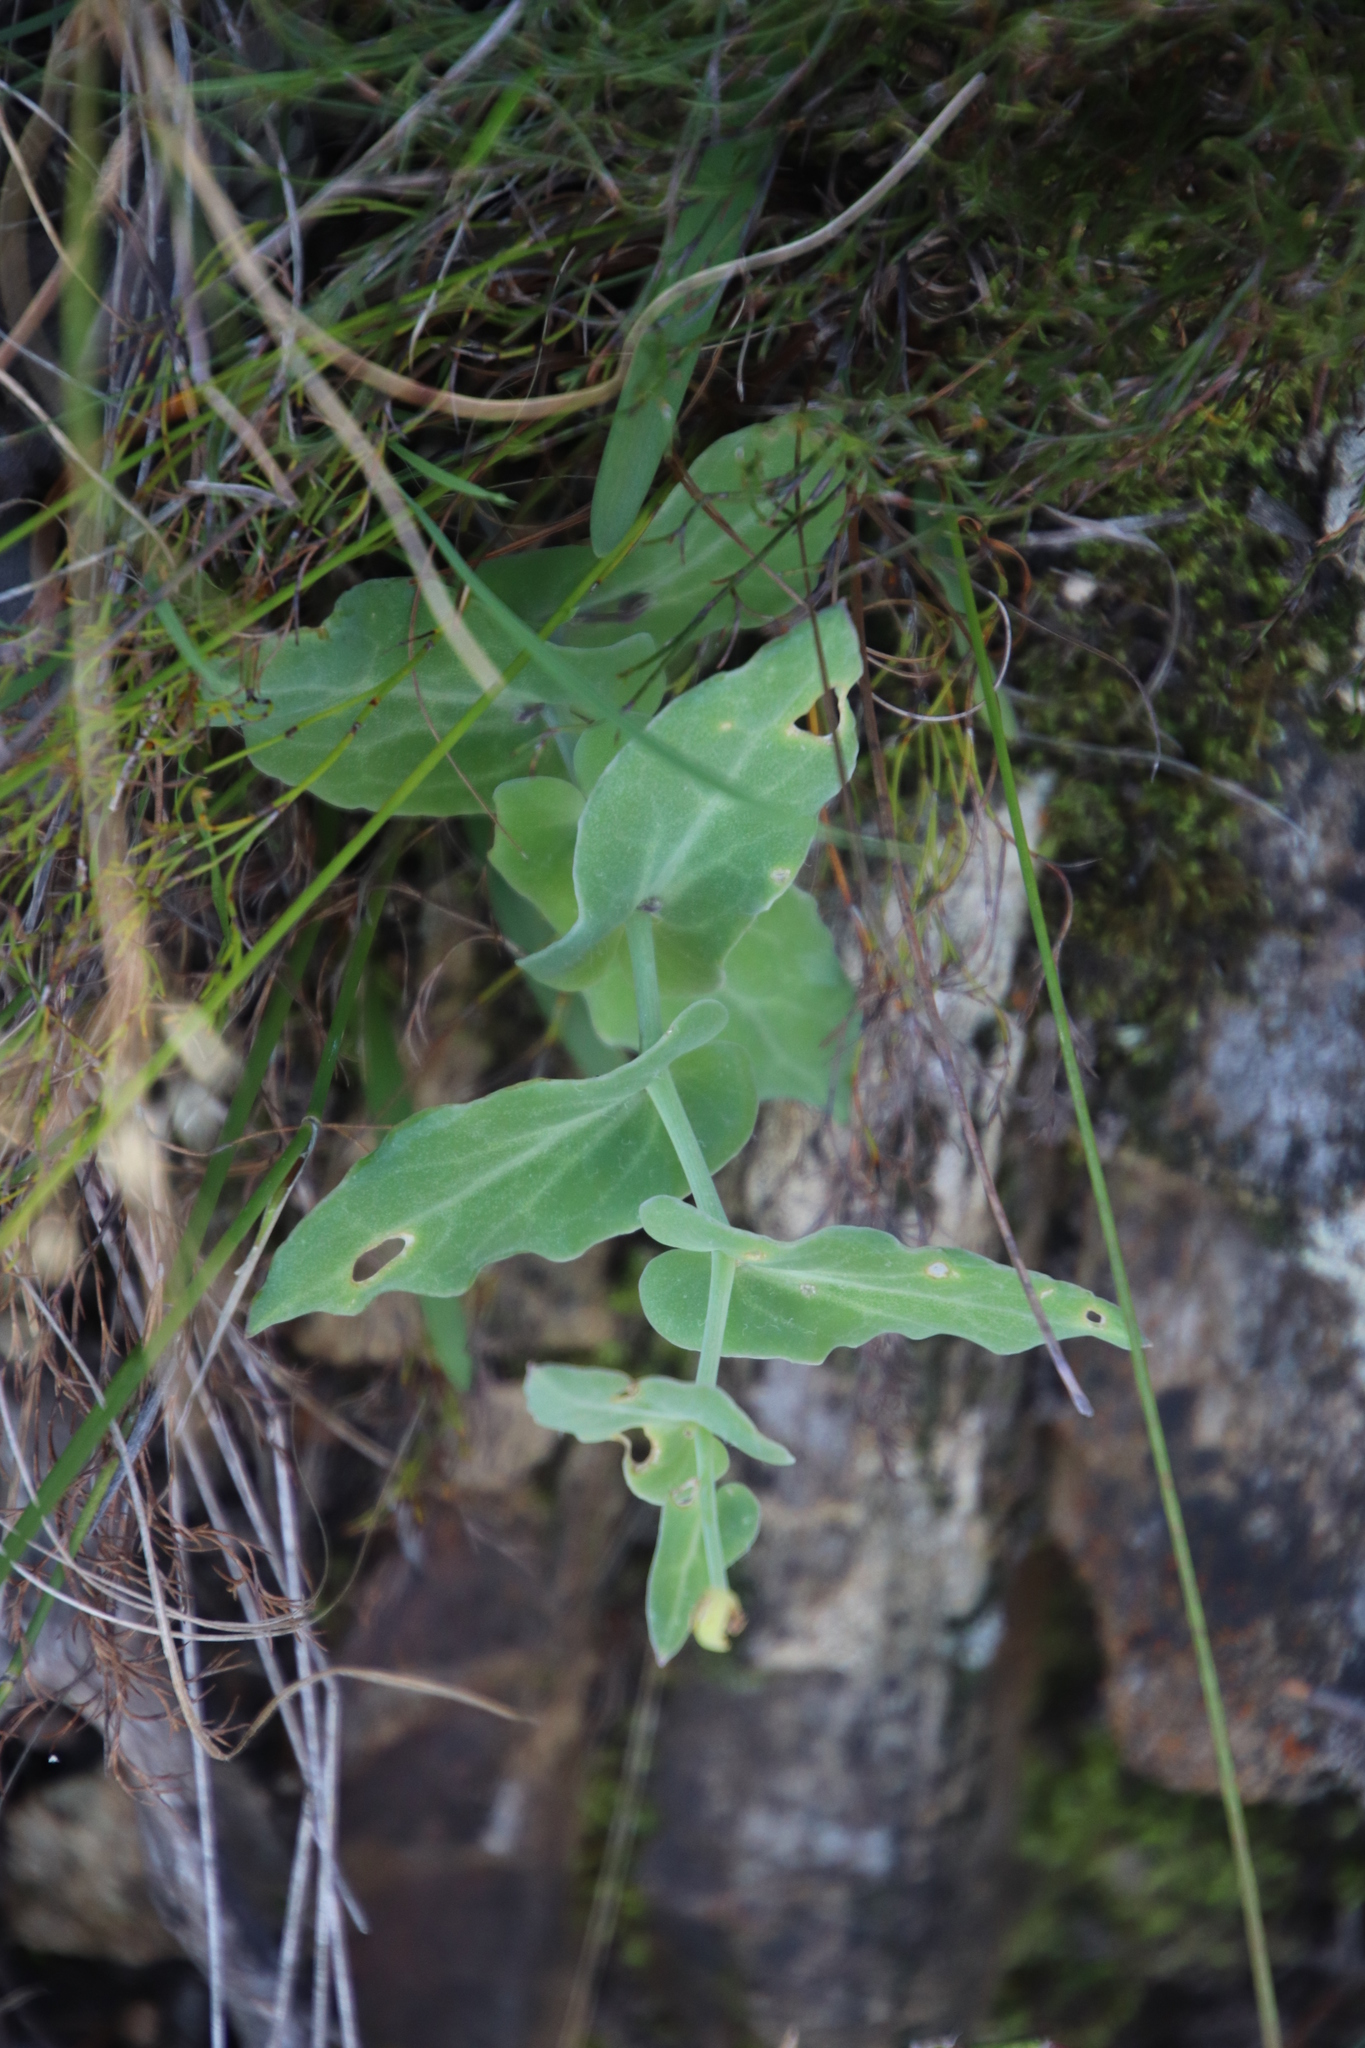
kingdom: Plantae
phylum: Tracheophyta
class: Magnoliopsida
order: Asterales
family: Asteraceae
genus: Othonna
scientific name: Othonna perfoliata
